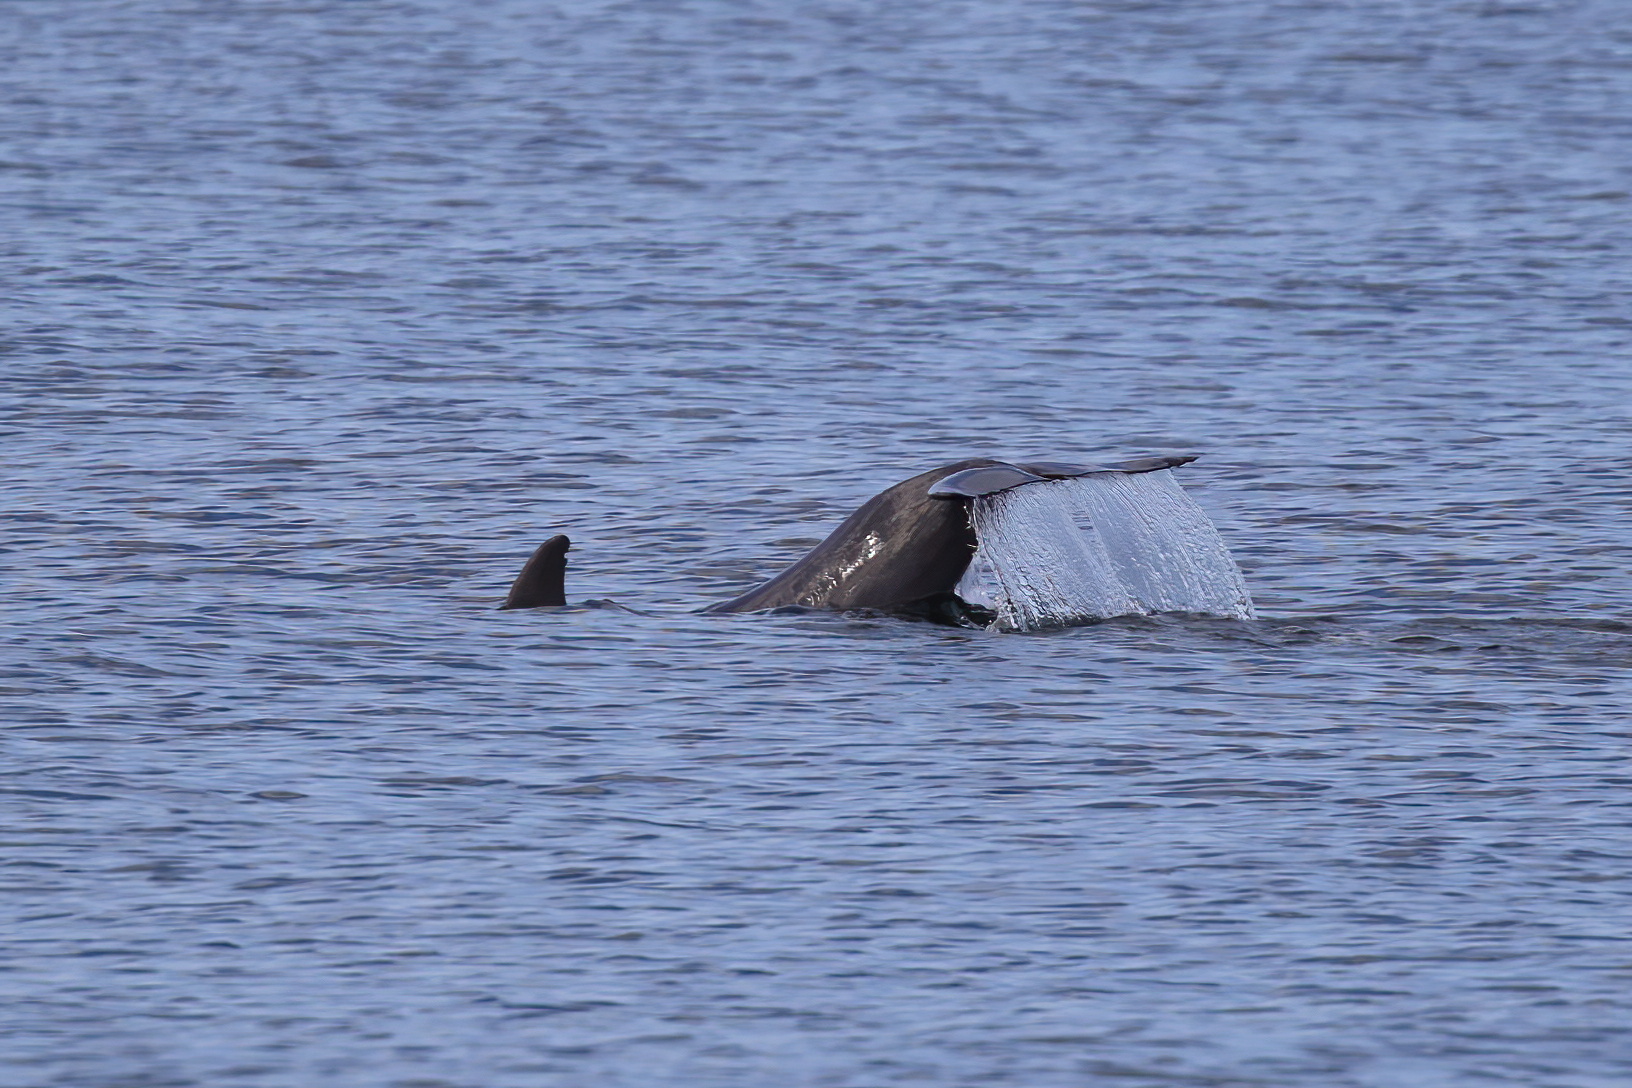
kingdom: Animalia
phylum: Chordata
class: Mammalia
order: Cetacea
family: Delphinidae
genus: Tursiops
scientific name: Tursiops truncatus
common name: Bottlenose dolphin
